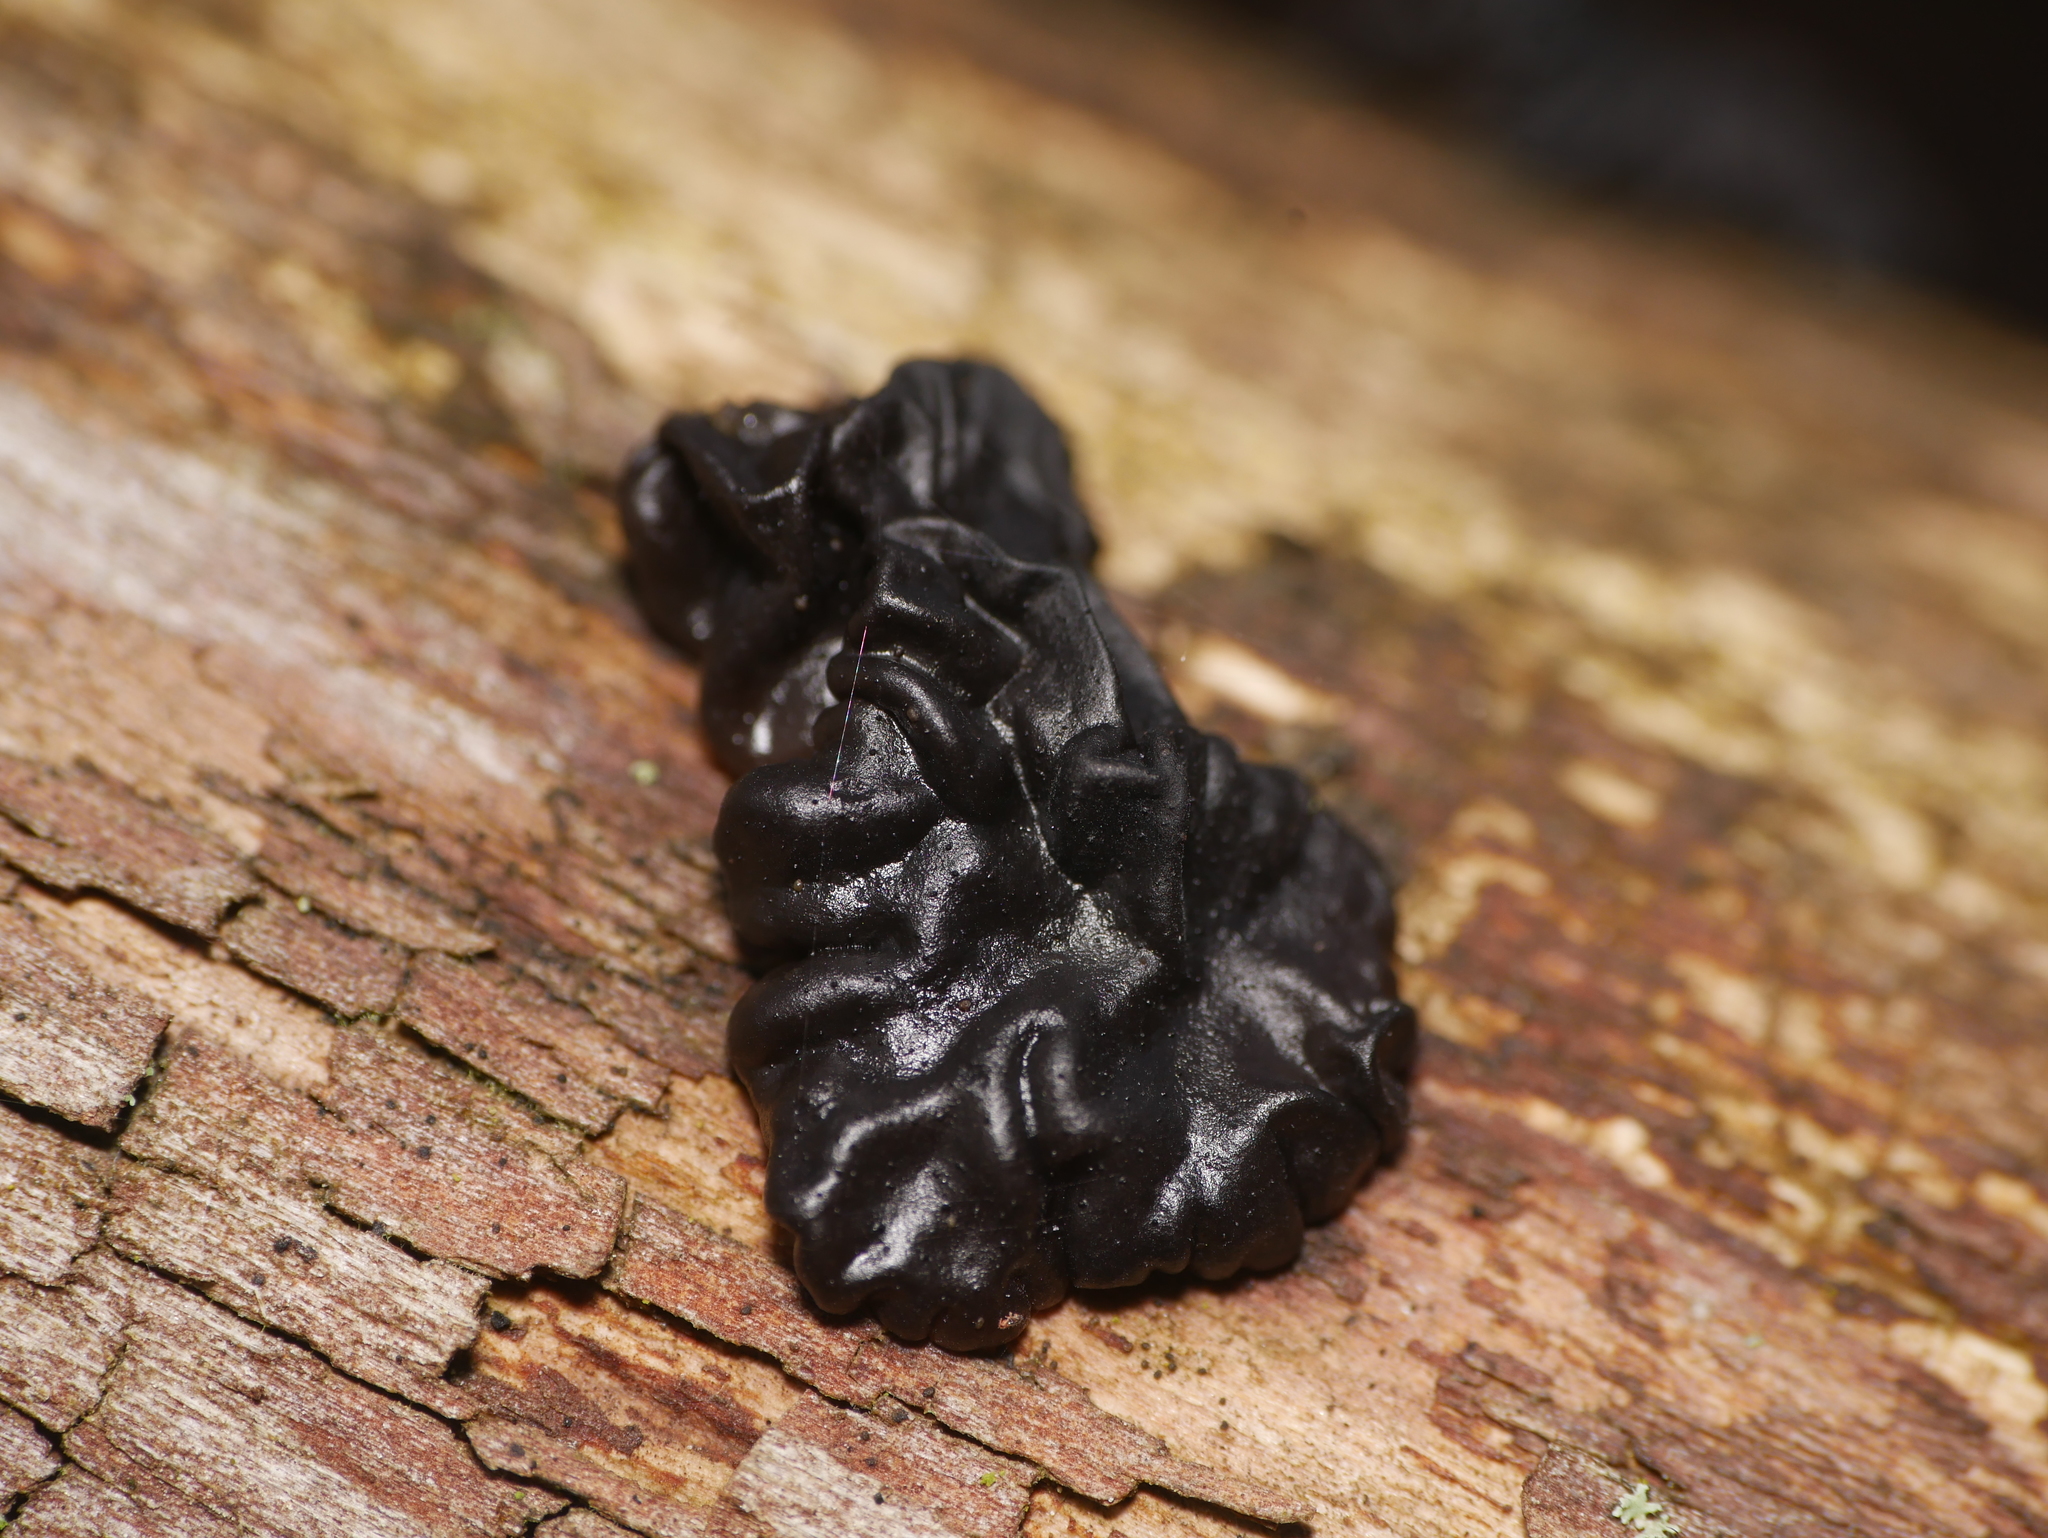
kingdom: Fungi
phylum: Basidiomycota
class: Agaricomycetes
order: Auriculariales
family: Auriculariaceae
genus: Exidia
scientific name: Exidia glandulosa
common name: Witches' butter
